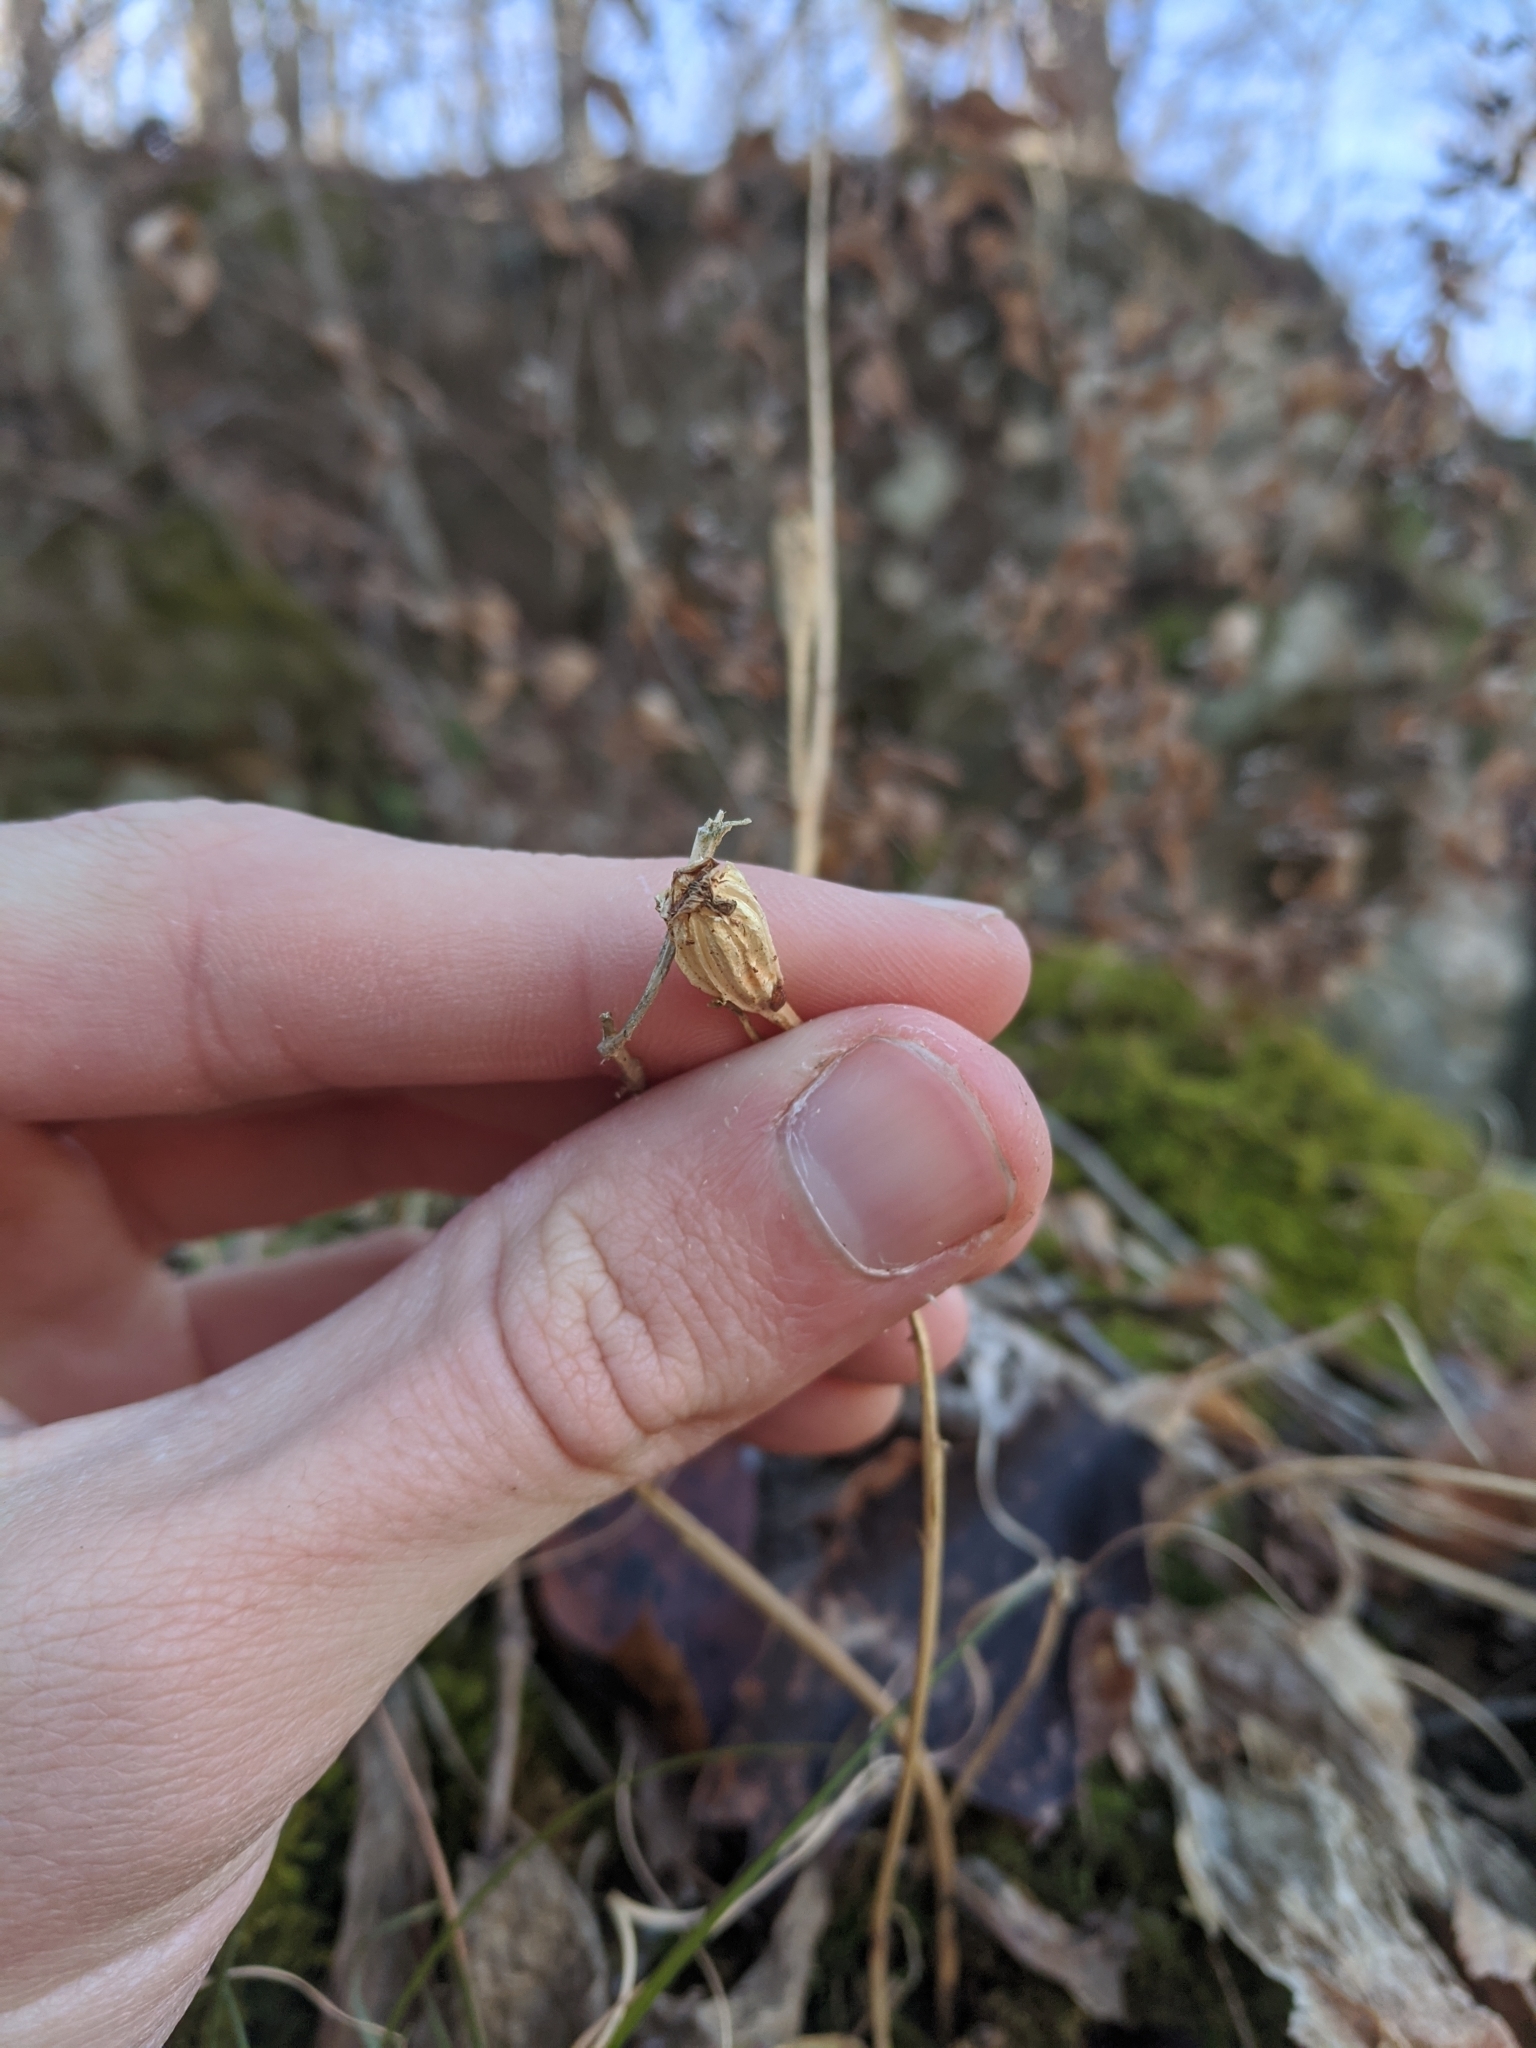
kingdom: Plantae
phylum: Tracheophyta
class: Liliopsida
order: Asparagales
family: Orchidaceae
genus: Liparis
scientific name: Liparis liliifolia
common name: Brown wide-lip orchid
